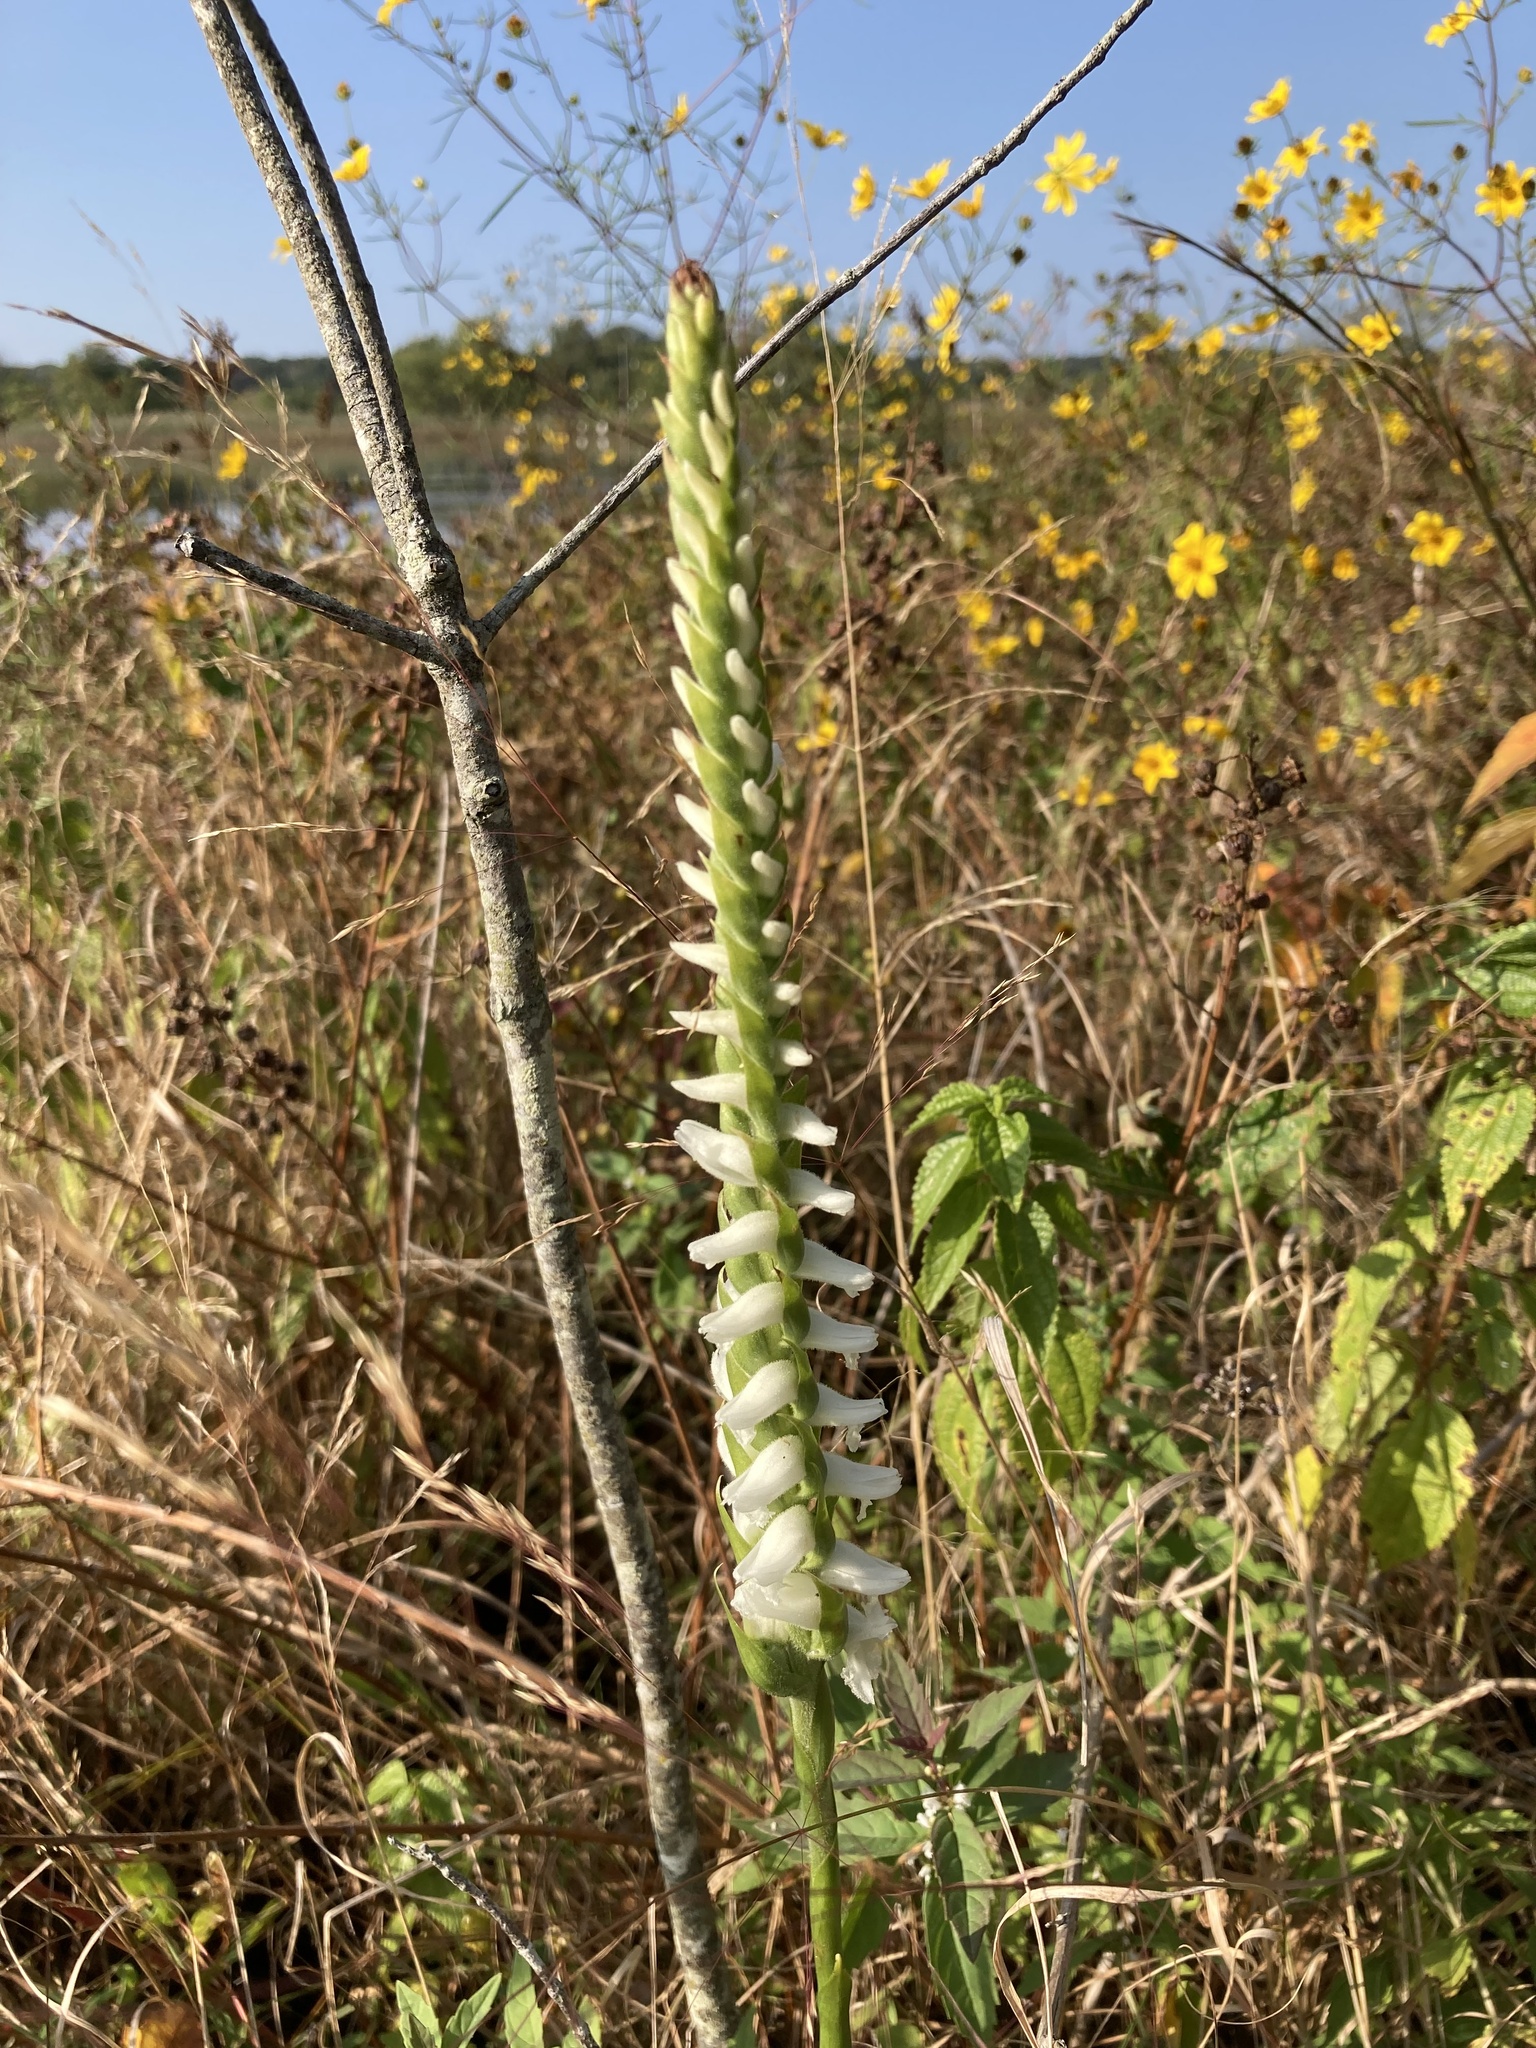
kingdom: Plantae
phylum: Tracheophyta
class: Liliopsida
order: Asparagales
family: Orchidaceae
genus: Spiranthes
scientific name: Spiranthes bightensis
